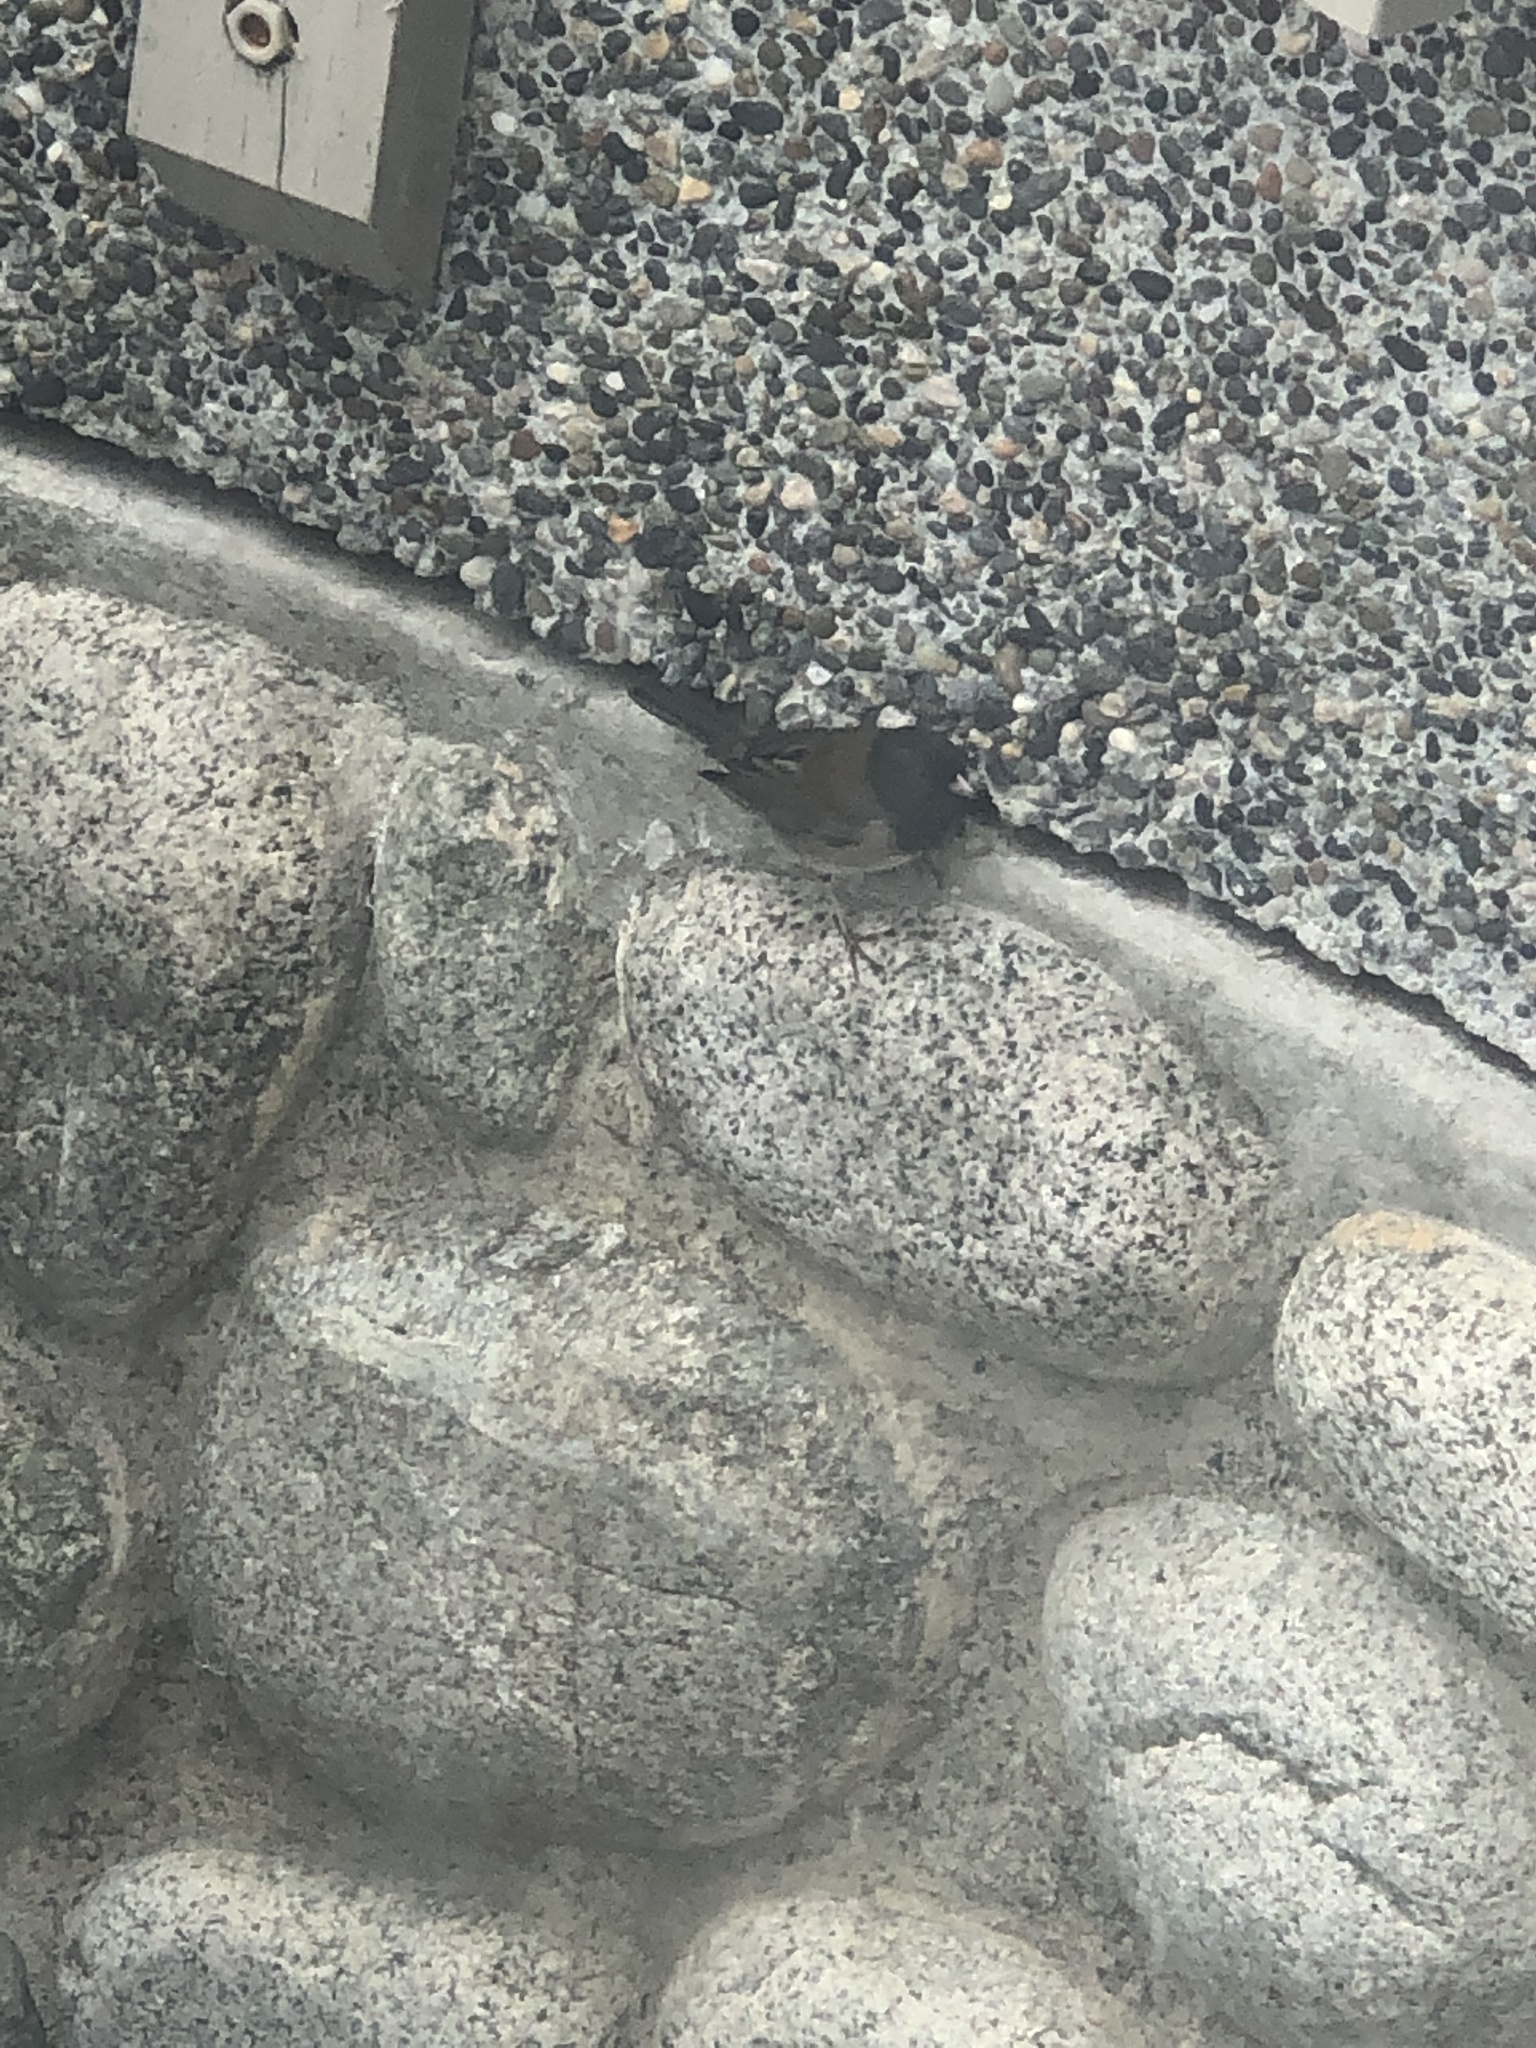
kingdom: Animalia
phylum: Chordata
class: Aves
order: Passeriformes
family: Passerellidae
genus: Junco
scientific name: Junco hyemalis
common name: Dark-eyed junco
